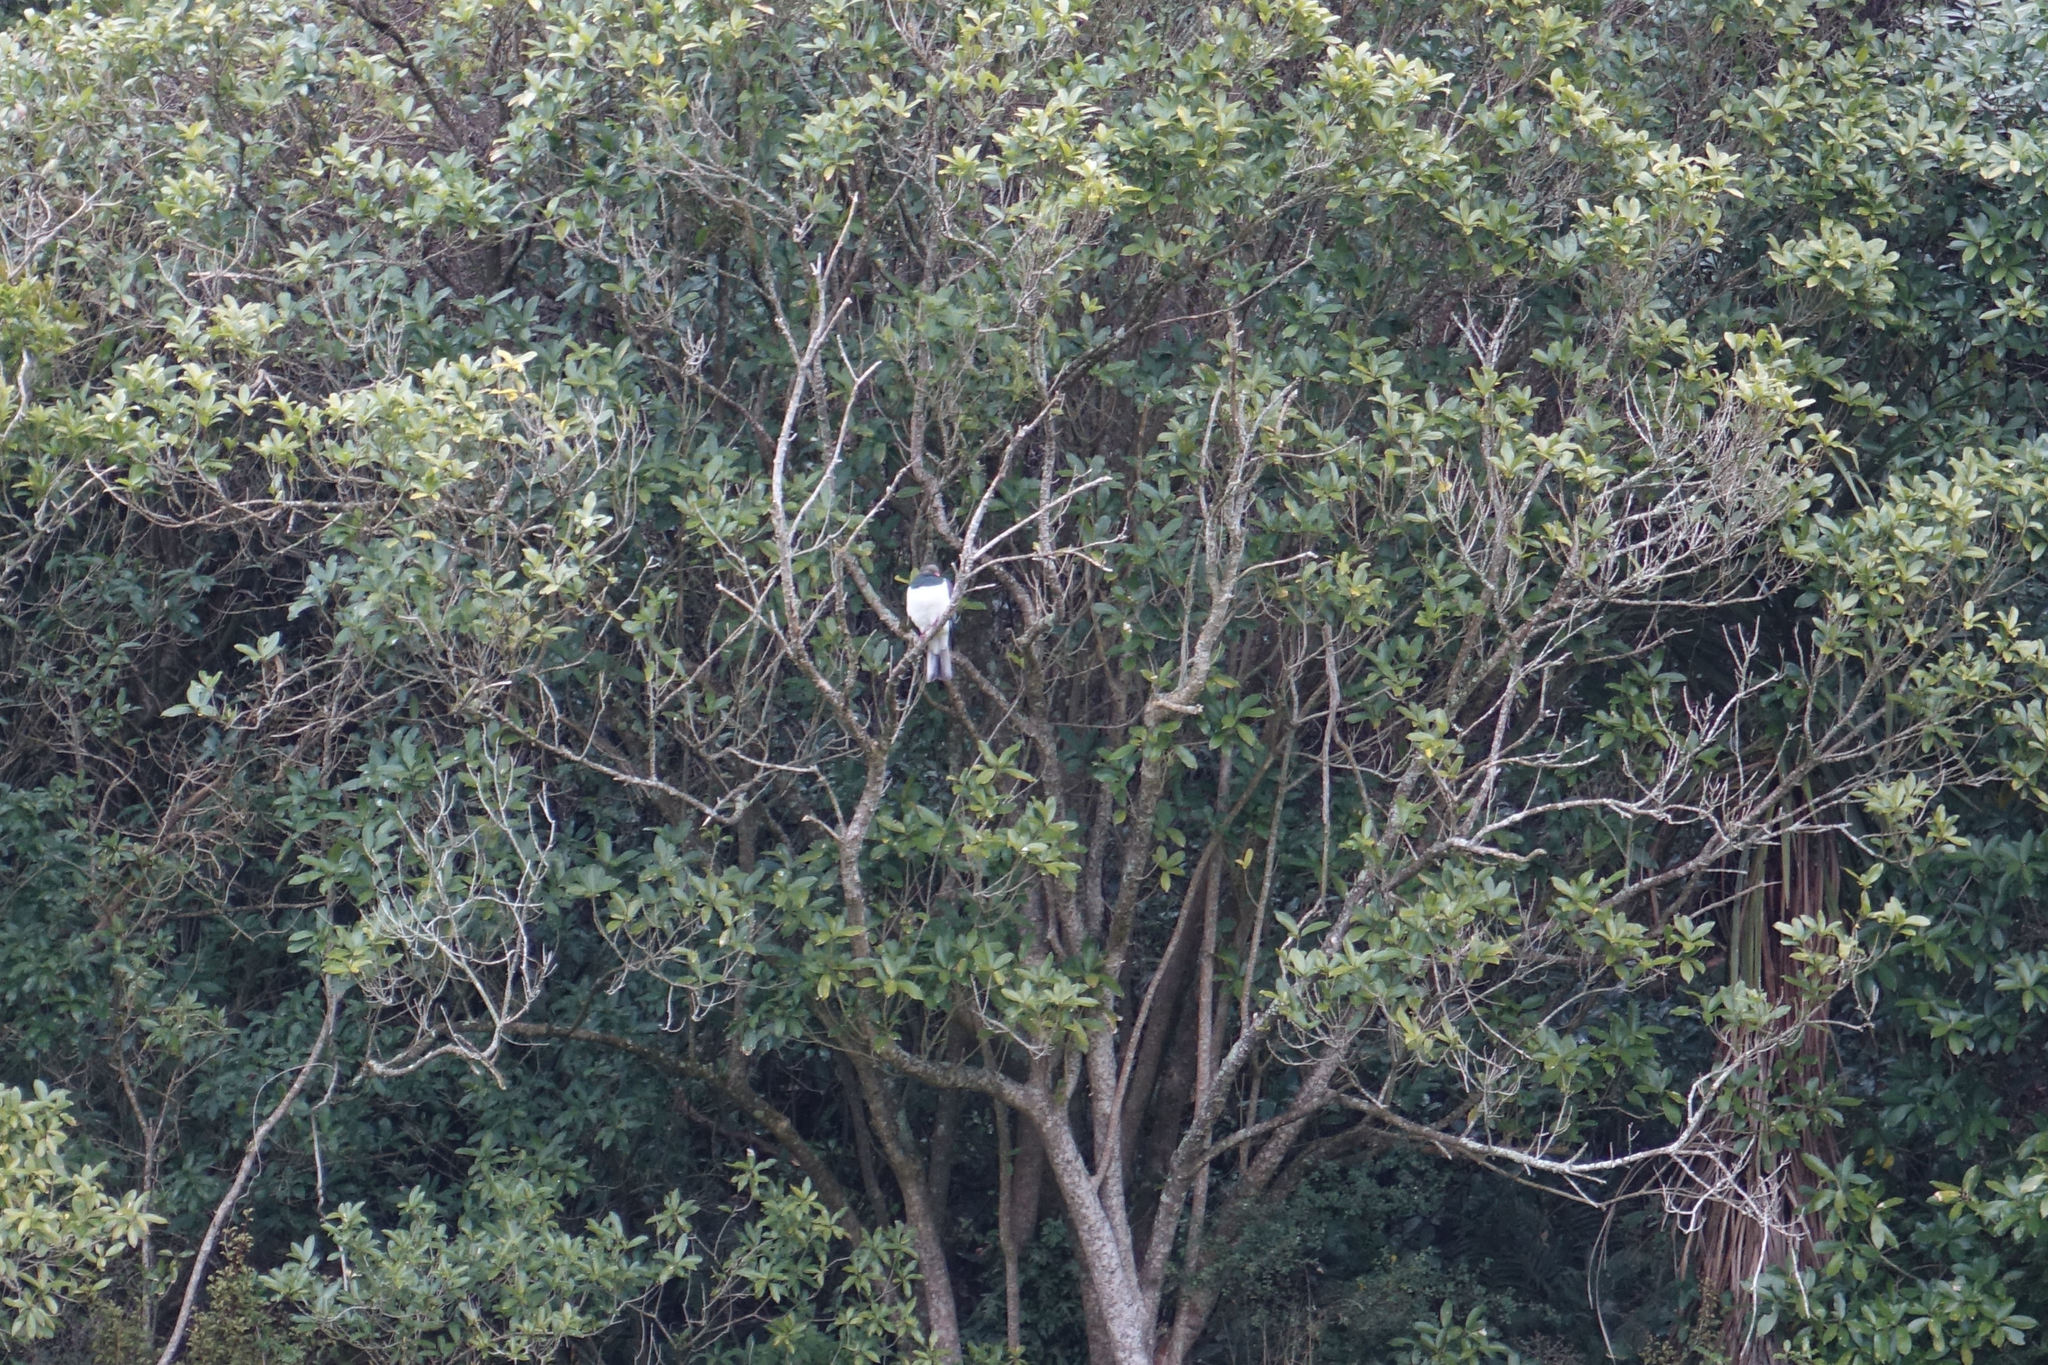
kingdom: Animalia
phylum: Chordata
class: Aves
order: Columbiformes
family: Columbidae
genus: Hemiphaga
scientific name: Hemiphaga novaeseelandiae
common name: New zealand pigeon
